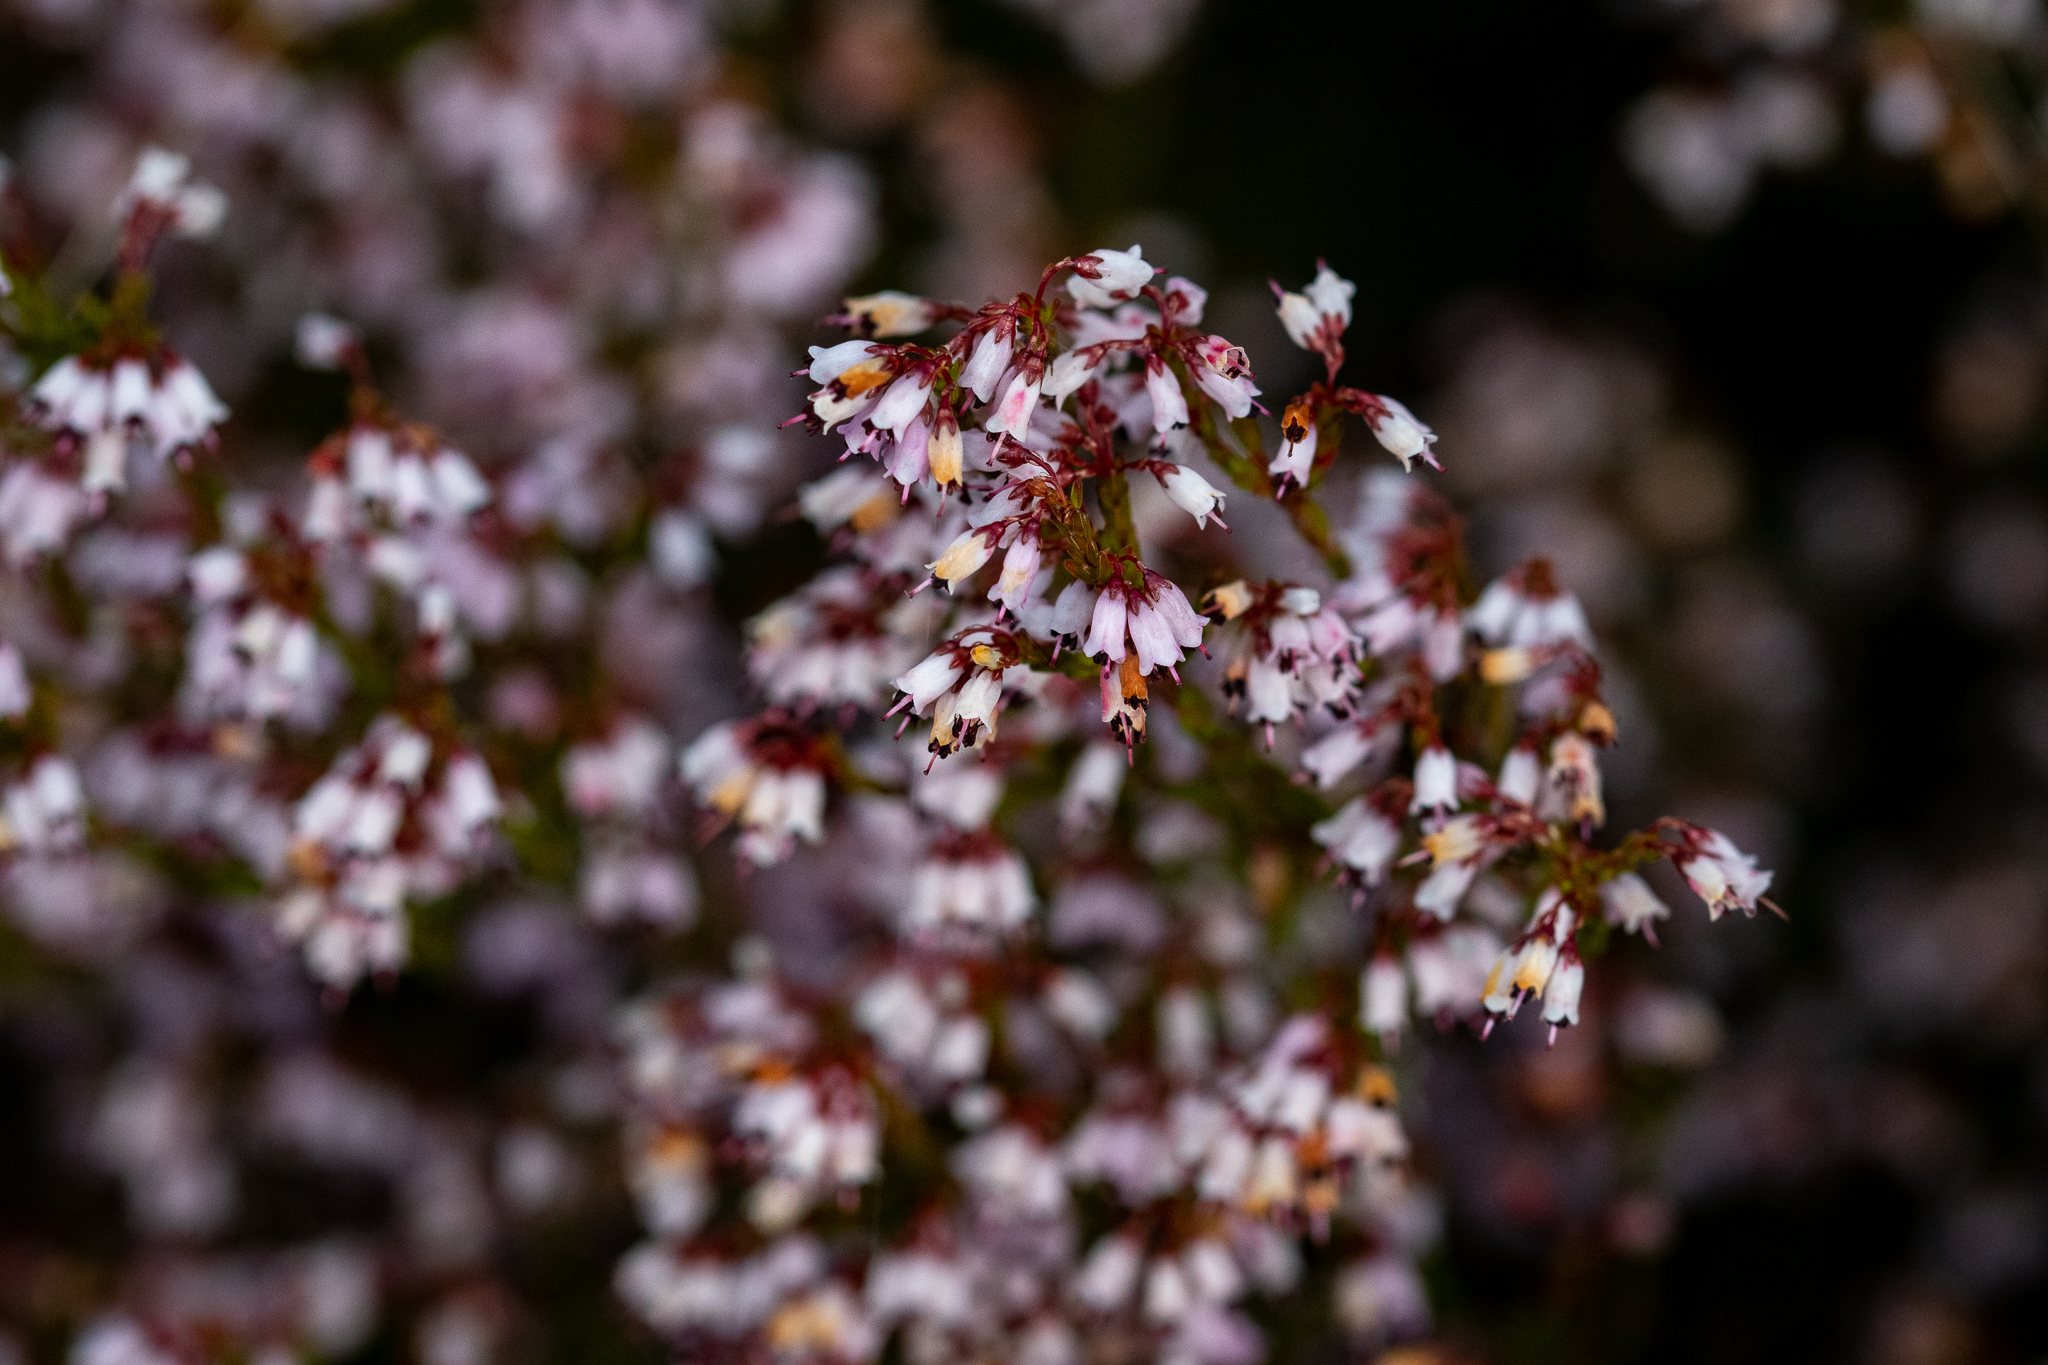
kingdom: Plantae
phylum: Tracheophyta
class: Magnoliopsida
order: Ericales
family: Ericaceae
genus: Erica
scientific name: Erica equisetifolia
